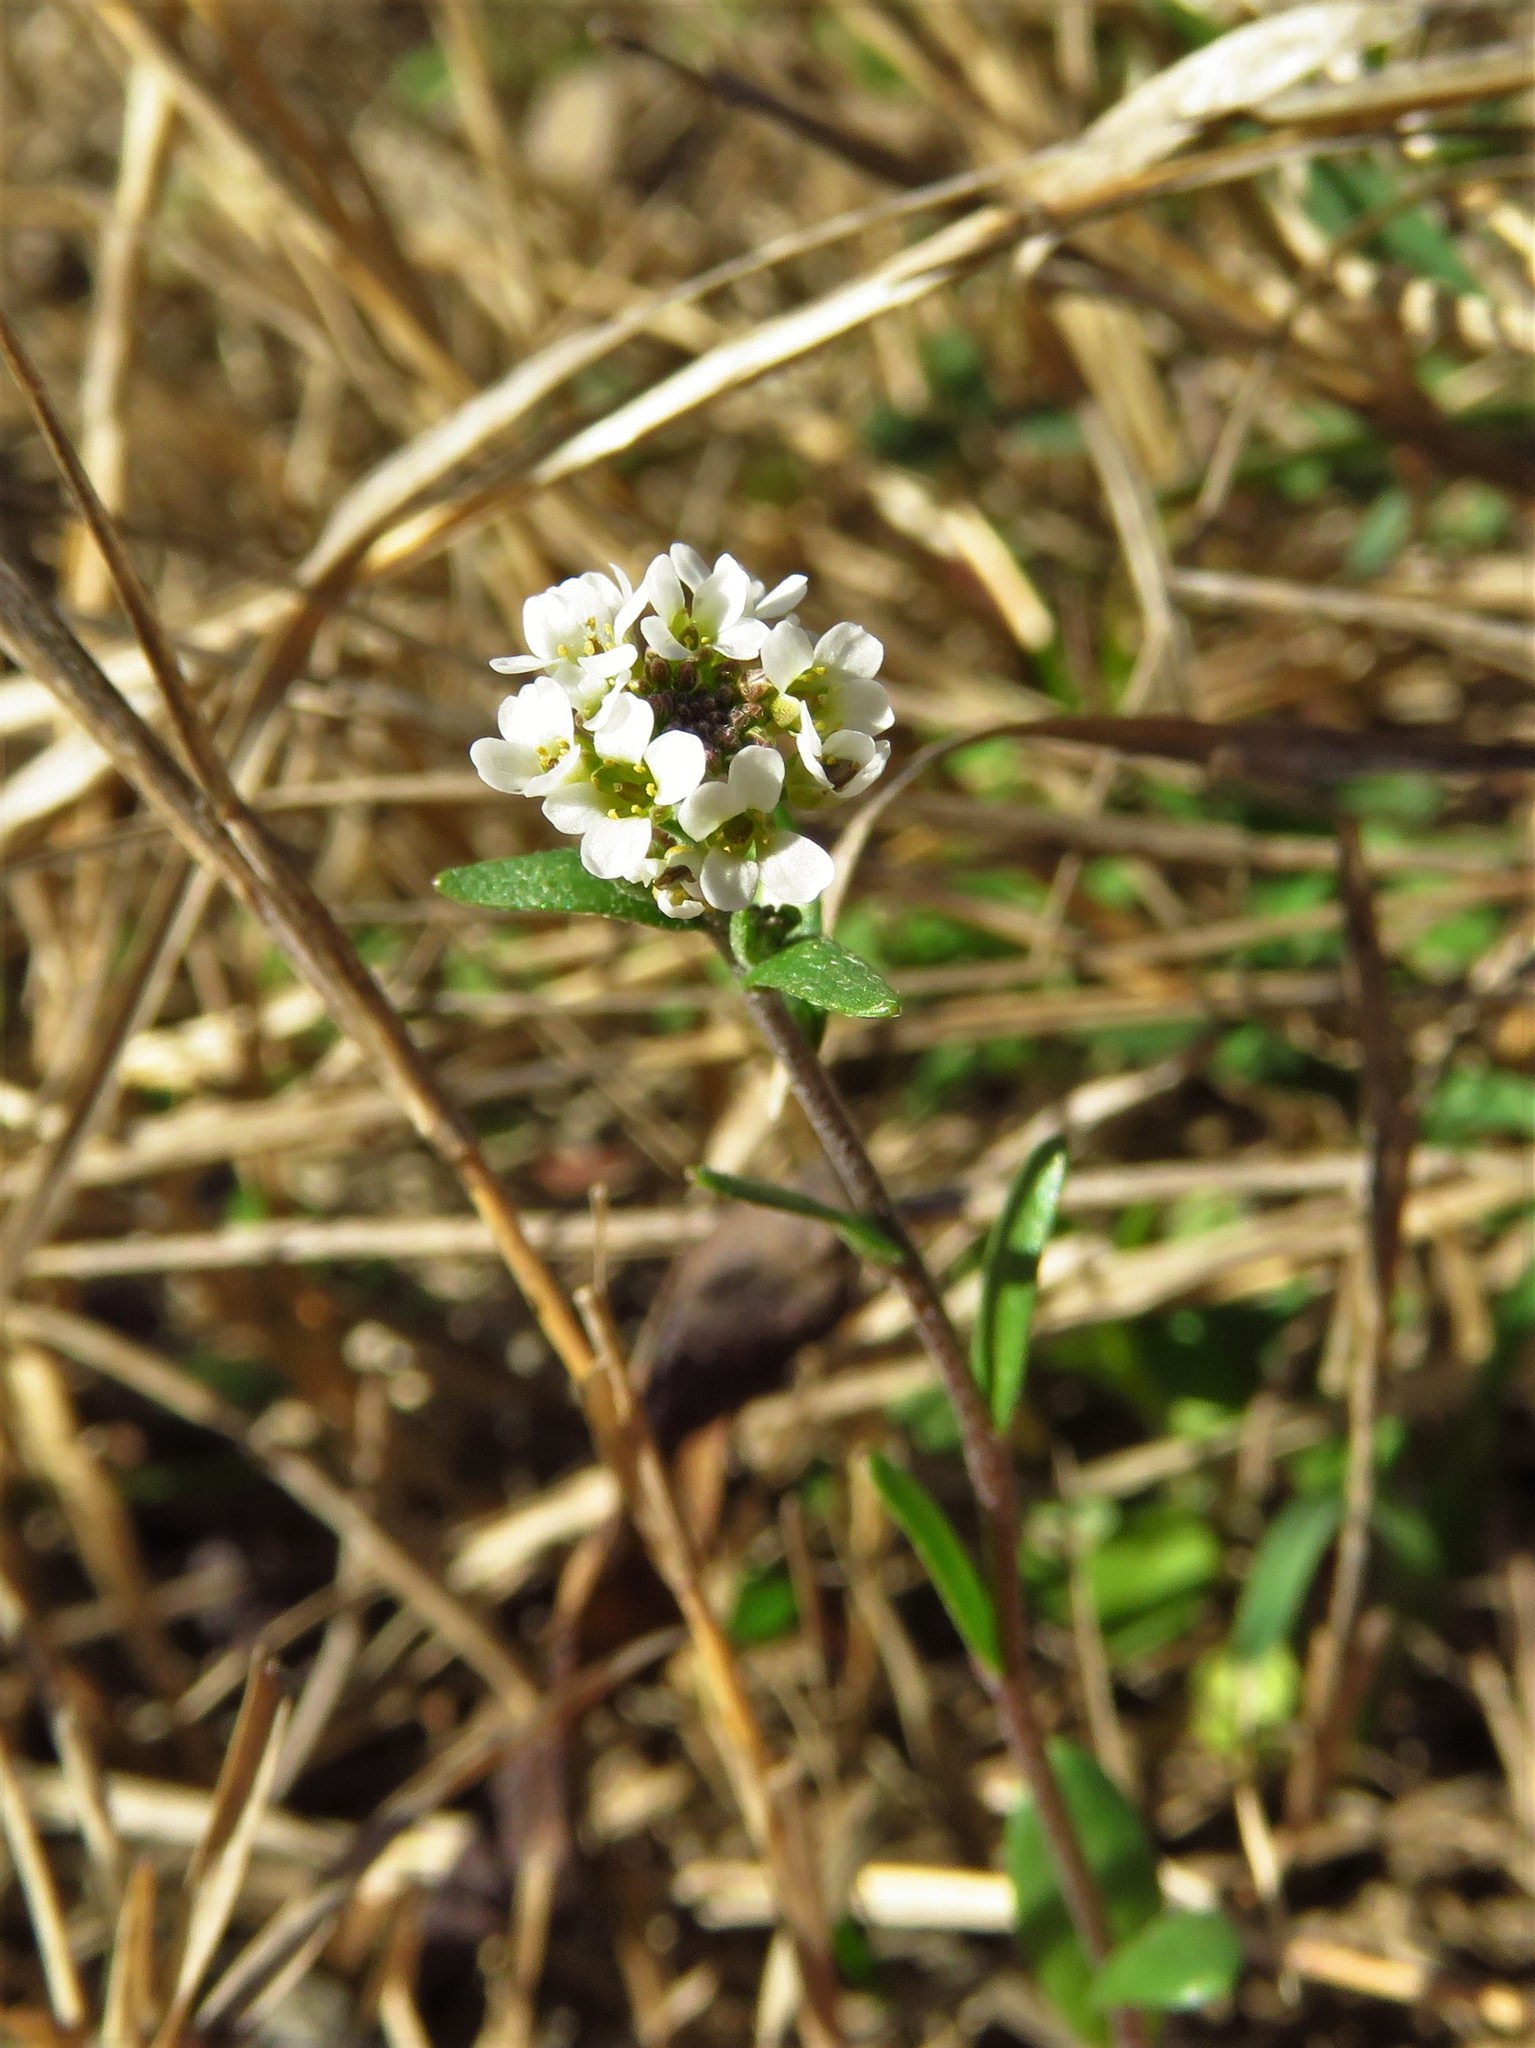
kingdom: Plantae
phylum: Tracheophyta
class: Magnoliopsida
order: Brassicales
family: Brassicaceae
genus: Abdra
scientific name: Abdra brachycarpa
